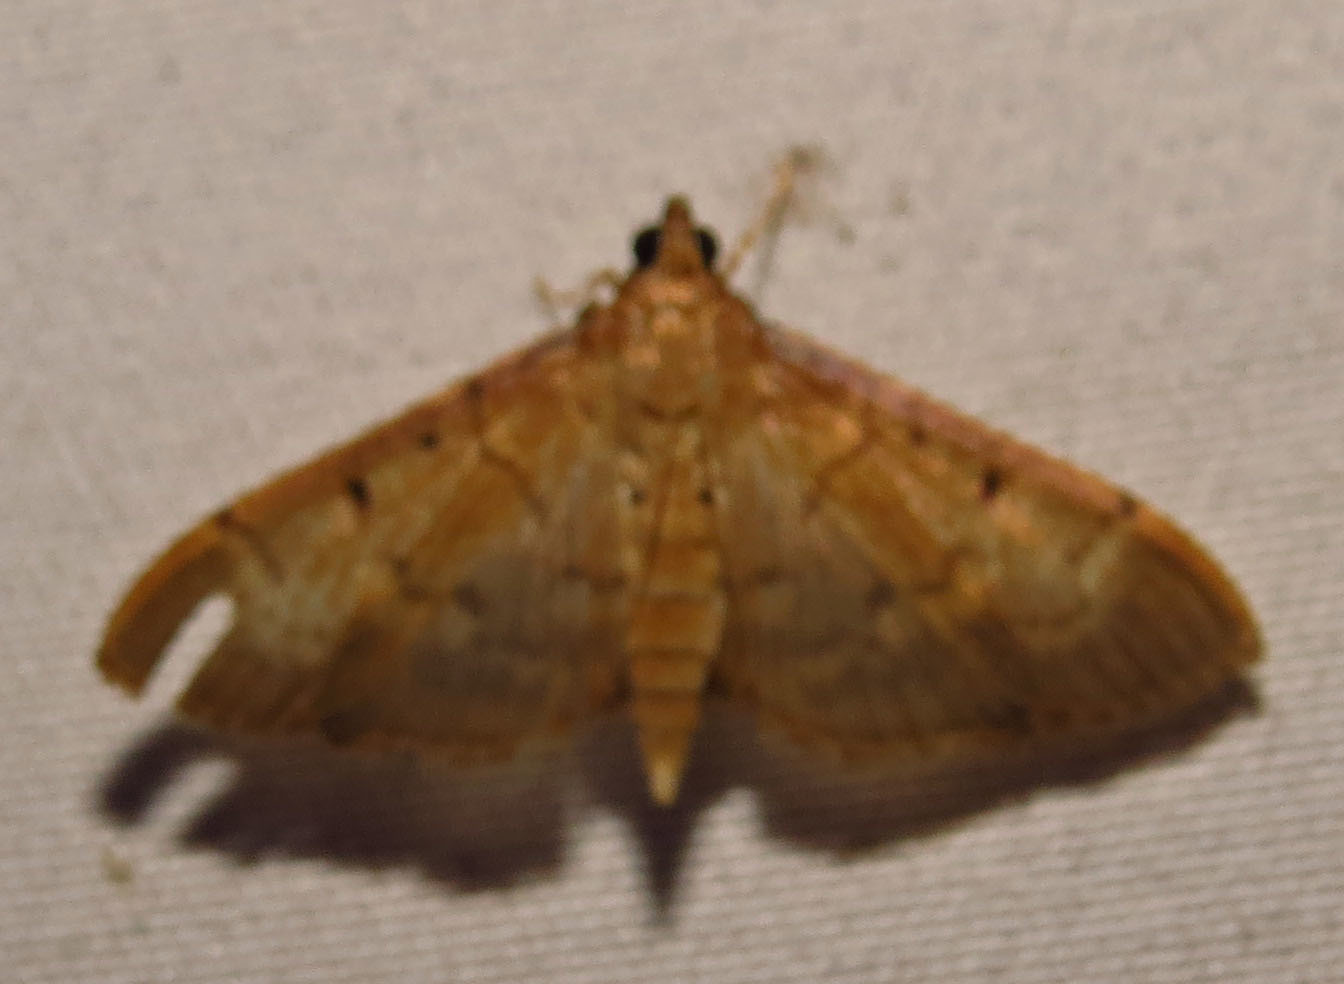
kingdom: Animalia
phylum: Arthropoda
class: Insecta
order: Lepidoptera
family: Crambidae
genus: Herpetogramma
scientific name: Herpetogramma bipunctalis
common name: Southern beet webworm
